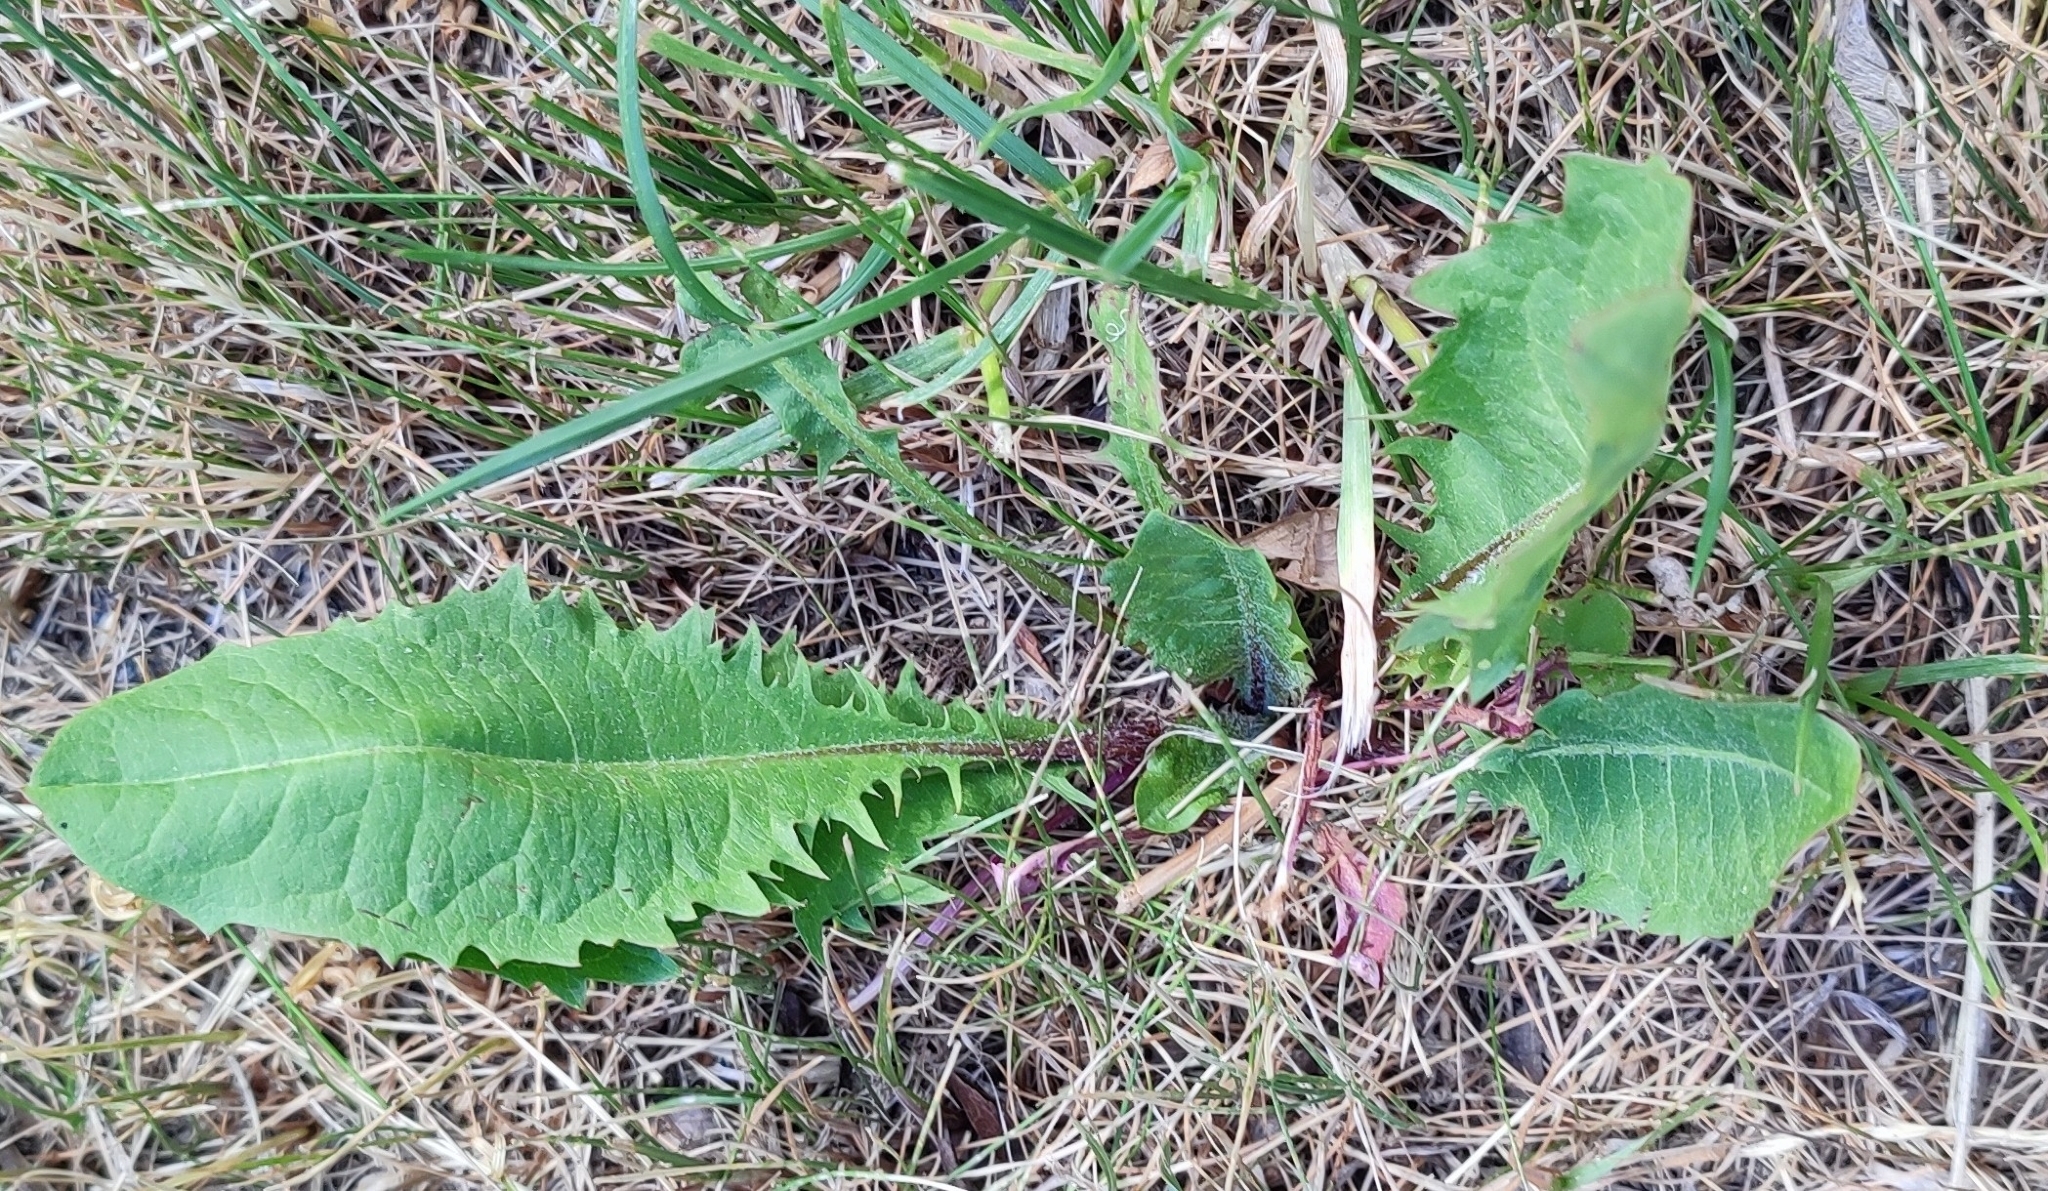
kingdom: Plantae
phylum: Tracheophyta
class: Magnoliopsida
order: Asterales
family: Asteraceae
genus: Taraxacum
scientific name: Taraxacum officinale
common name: Common dandelion
